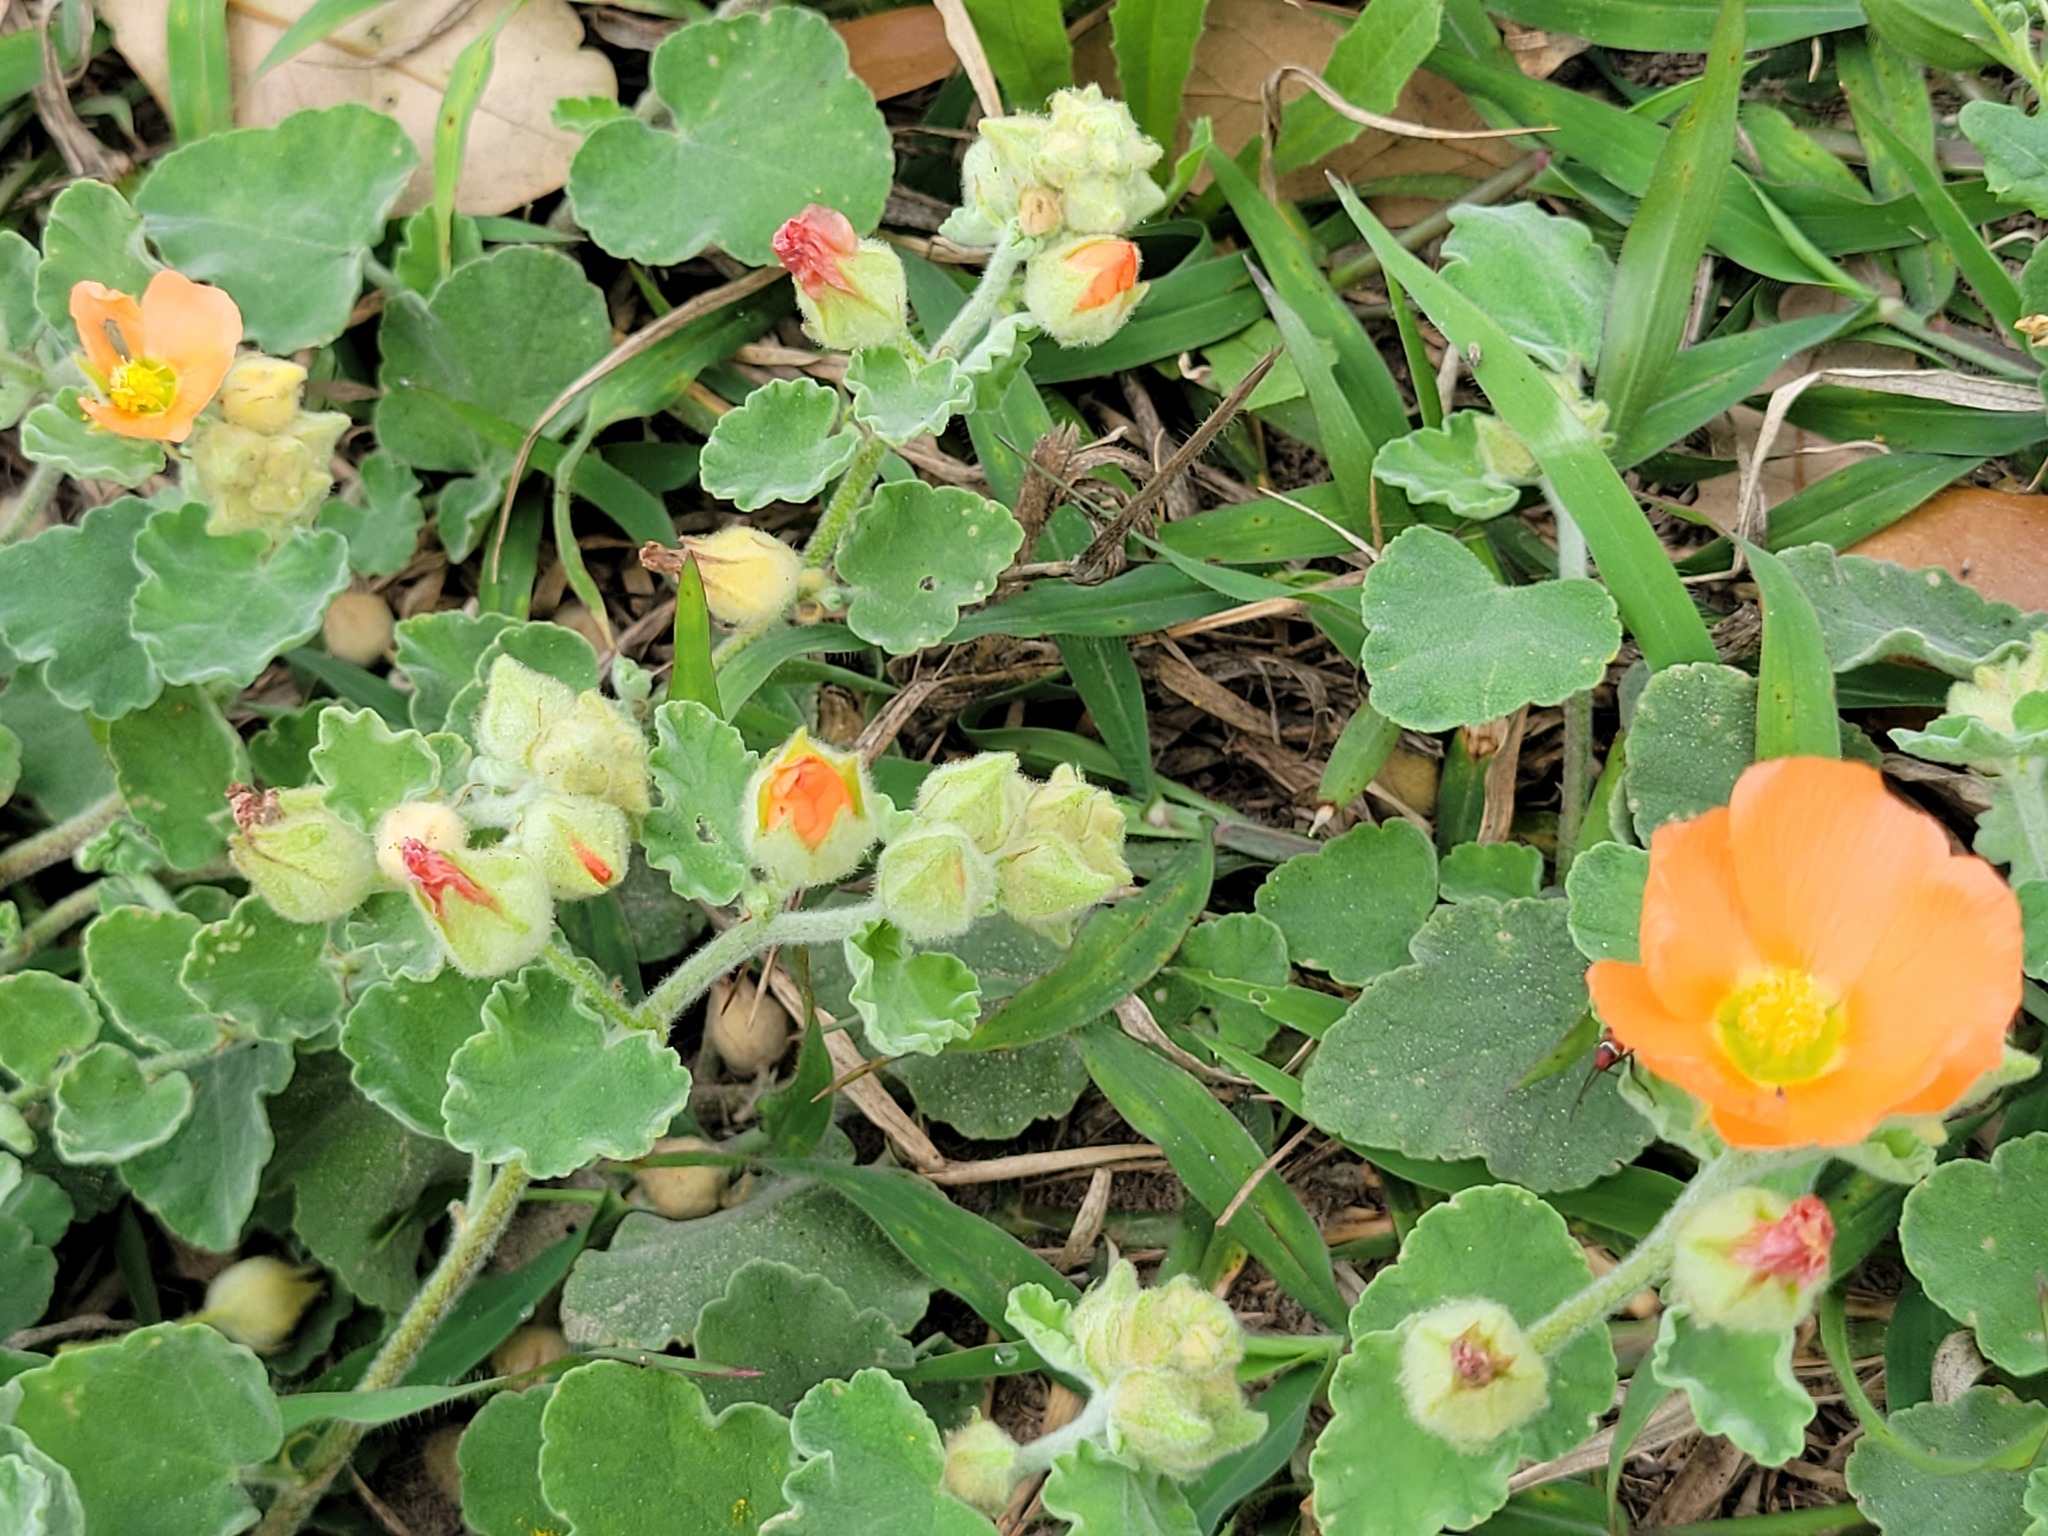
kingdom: Plantae
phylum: Tracheophyta
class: Magnoliopsida
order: Malvales
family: Malvaceae
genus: Sphaeralcea
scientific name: Sphaeralcea lindheimeri
